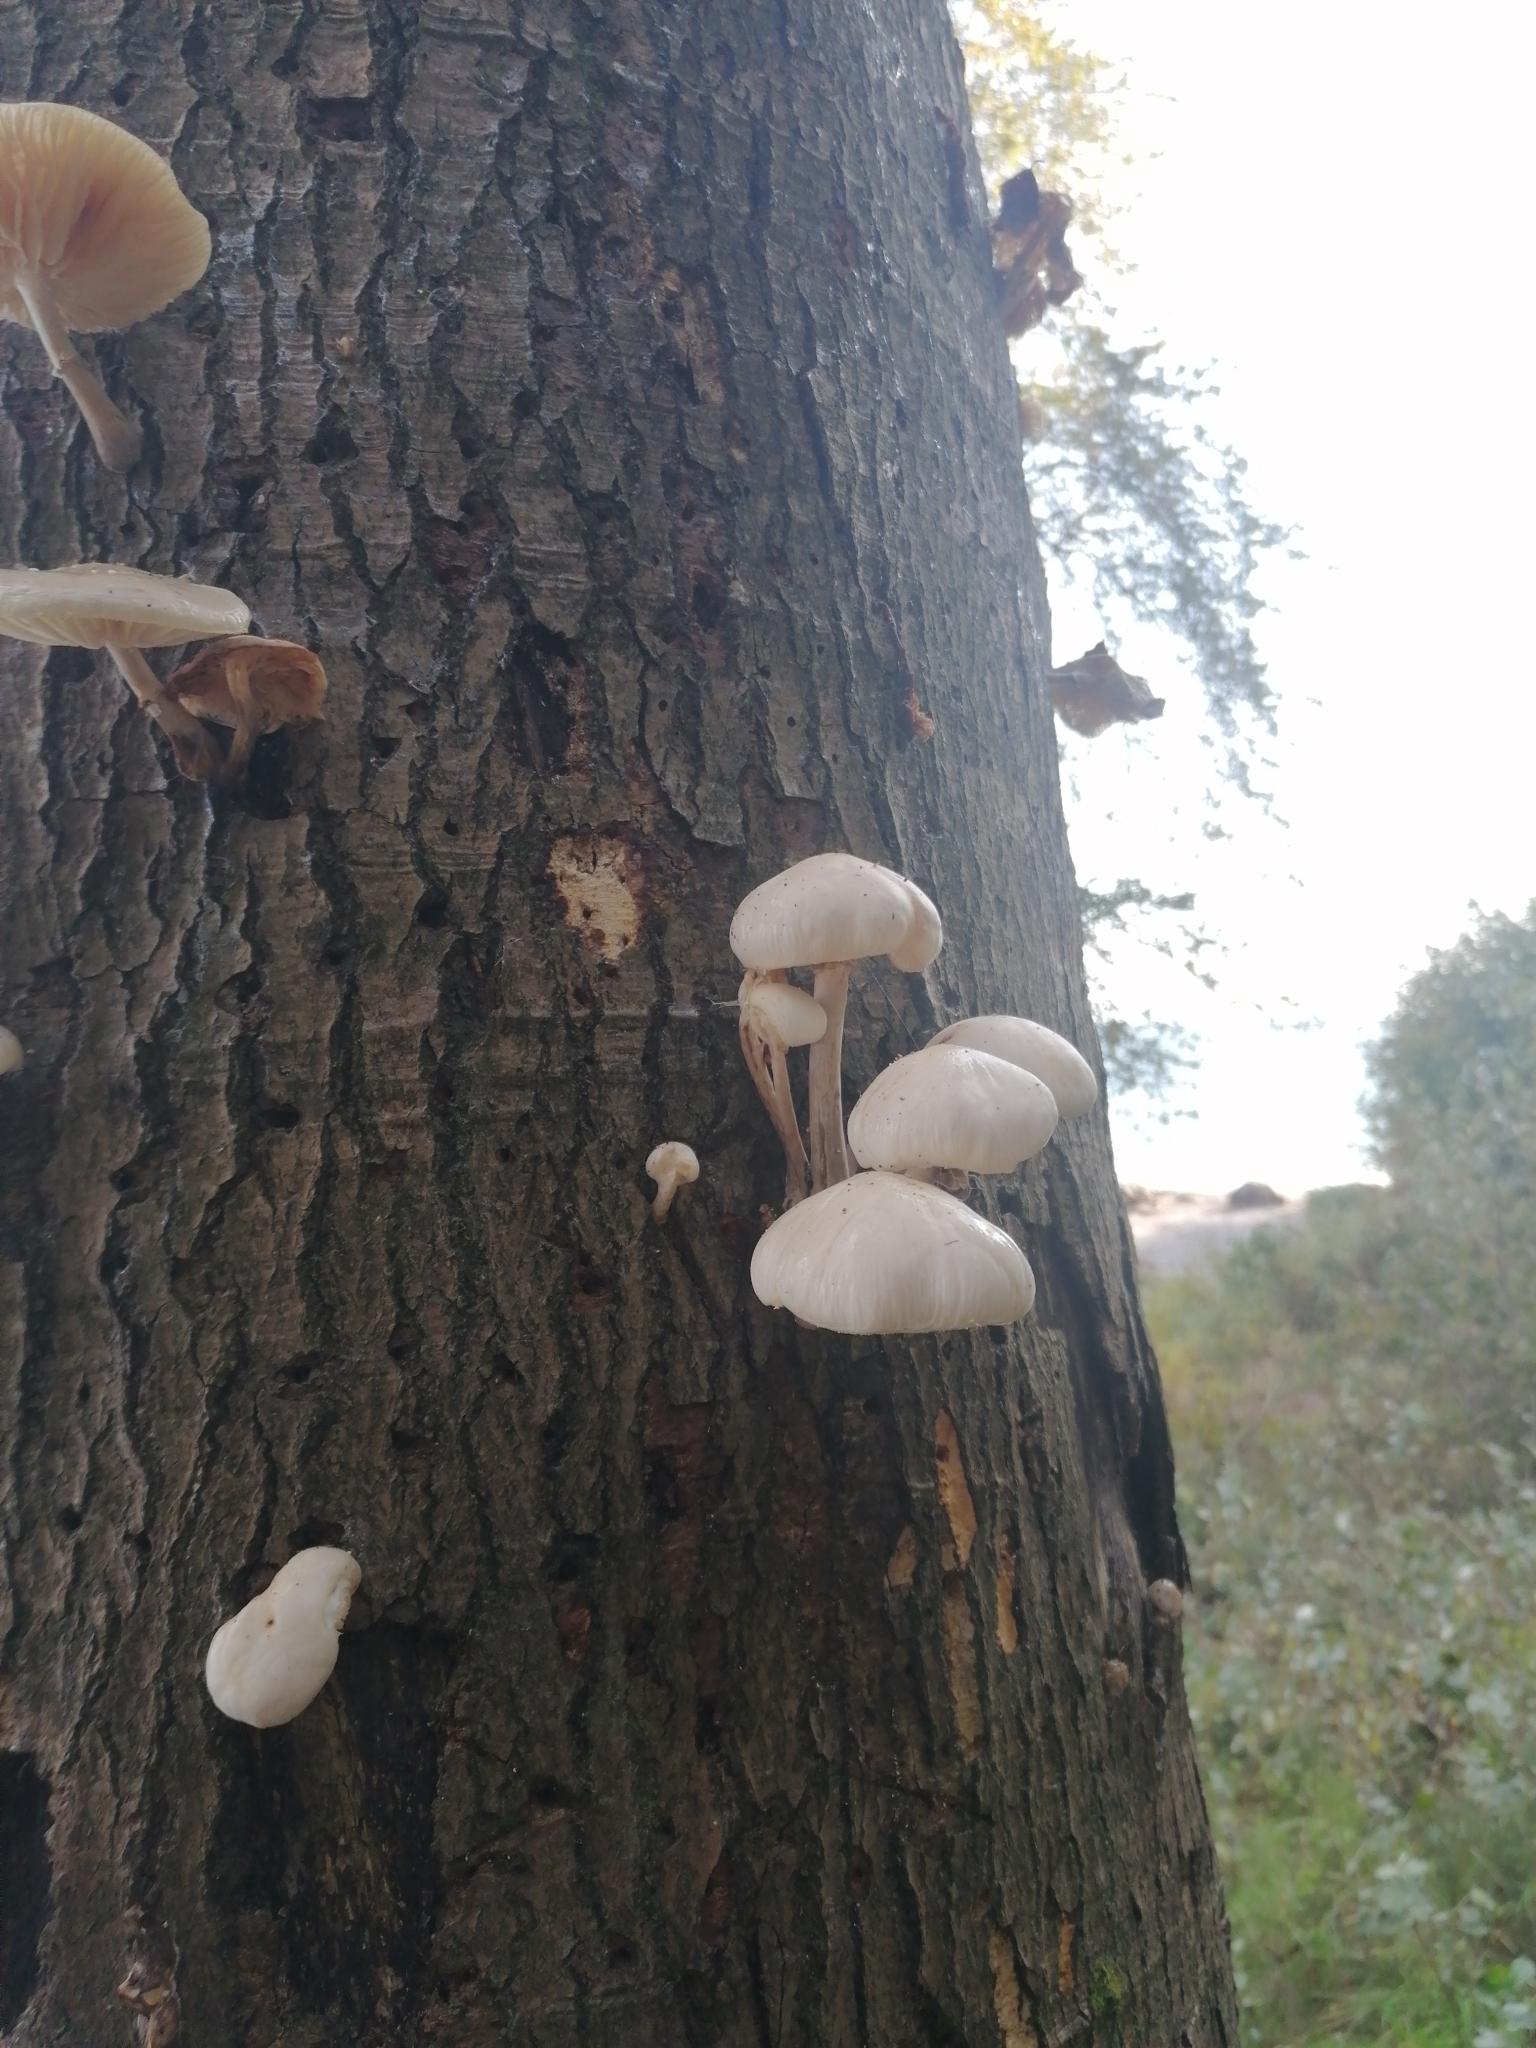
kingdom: Fungi
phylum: Basidiomycota
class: Agaricomycetes
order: Agaricales
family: Physalacriaceae
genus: Mucidula
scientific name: Mucidula mucida
